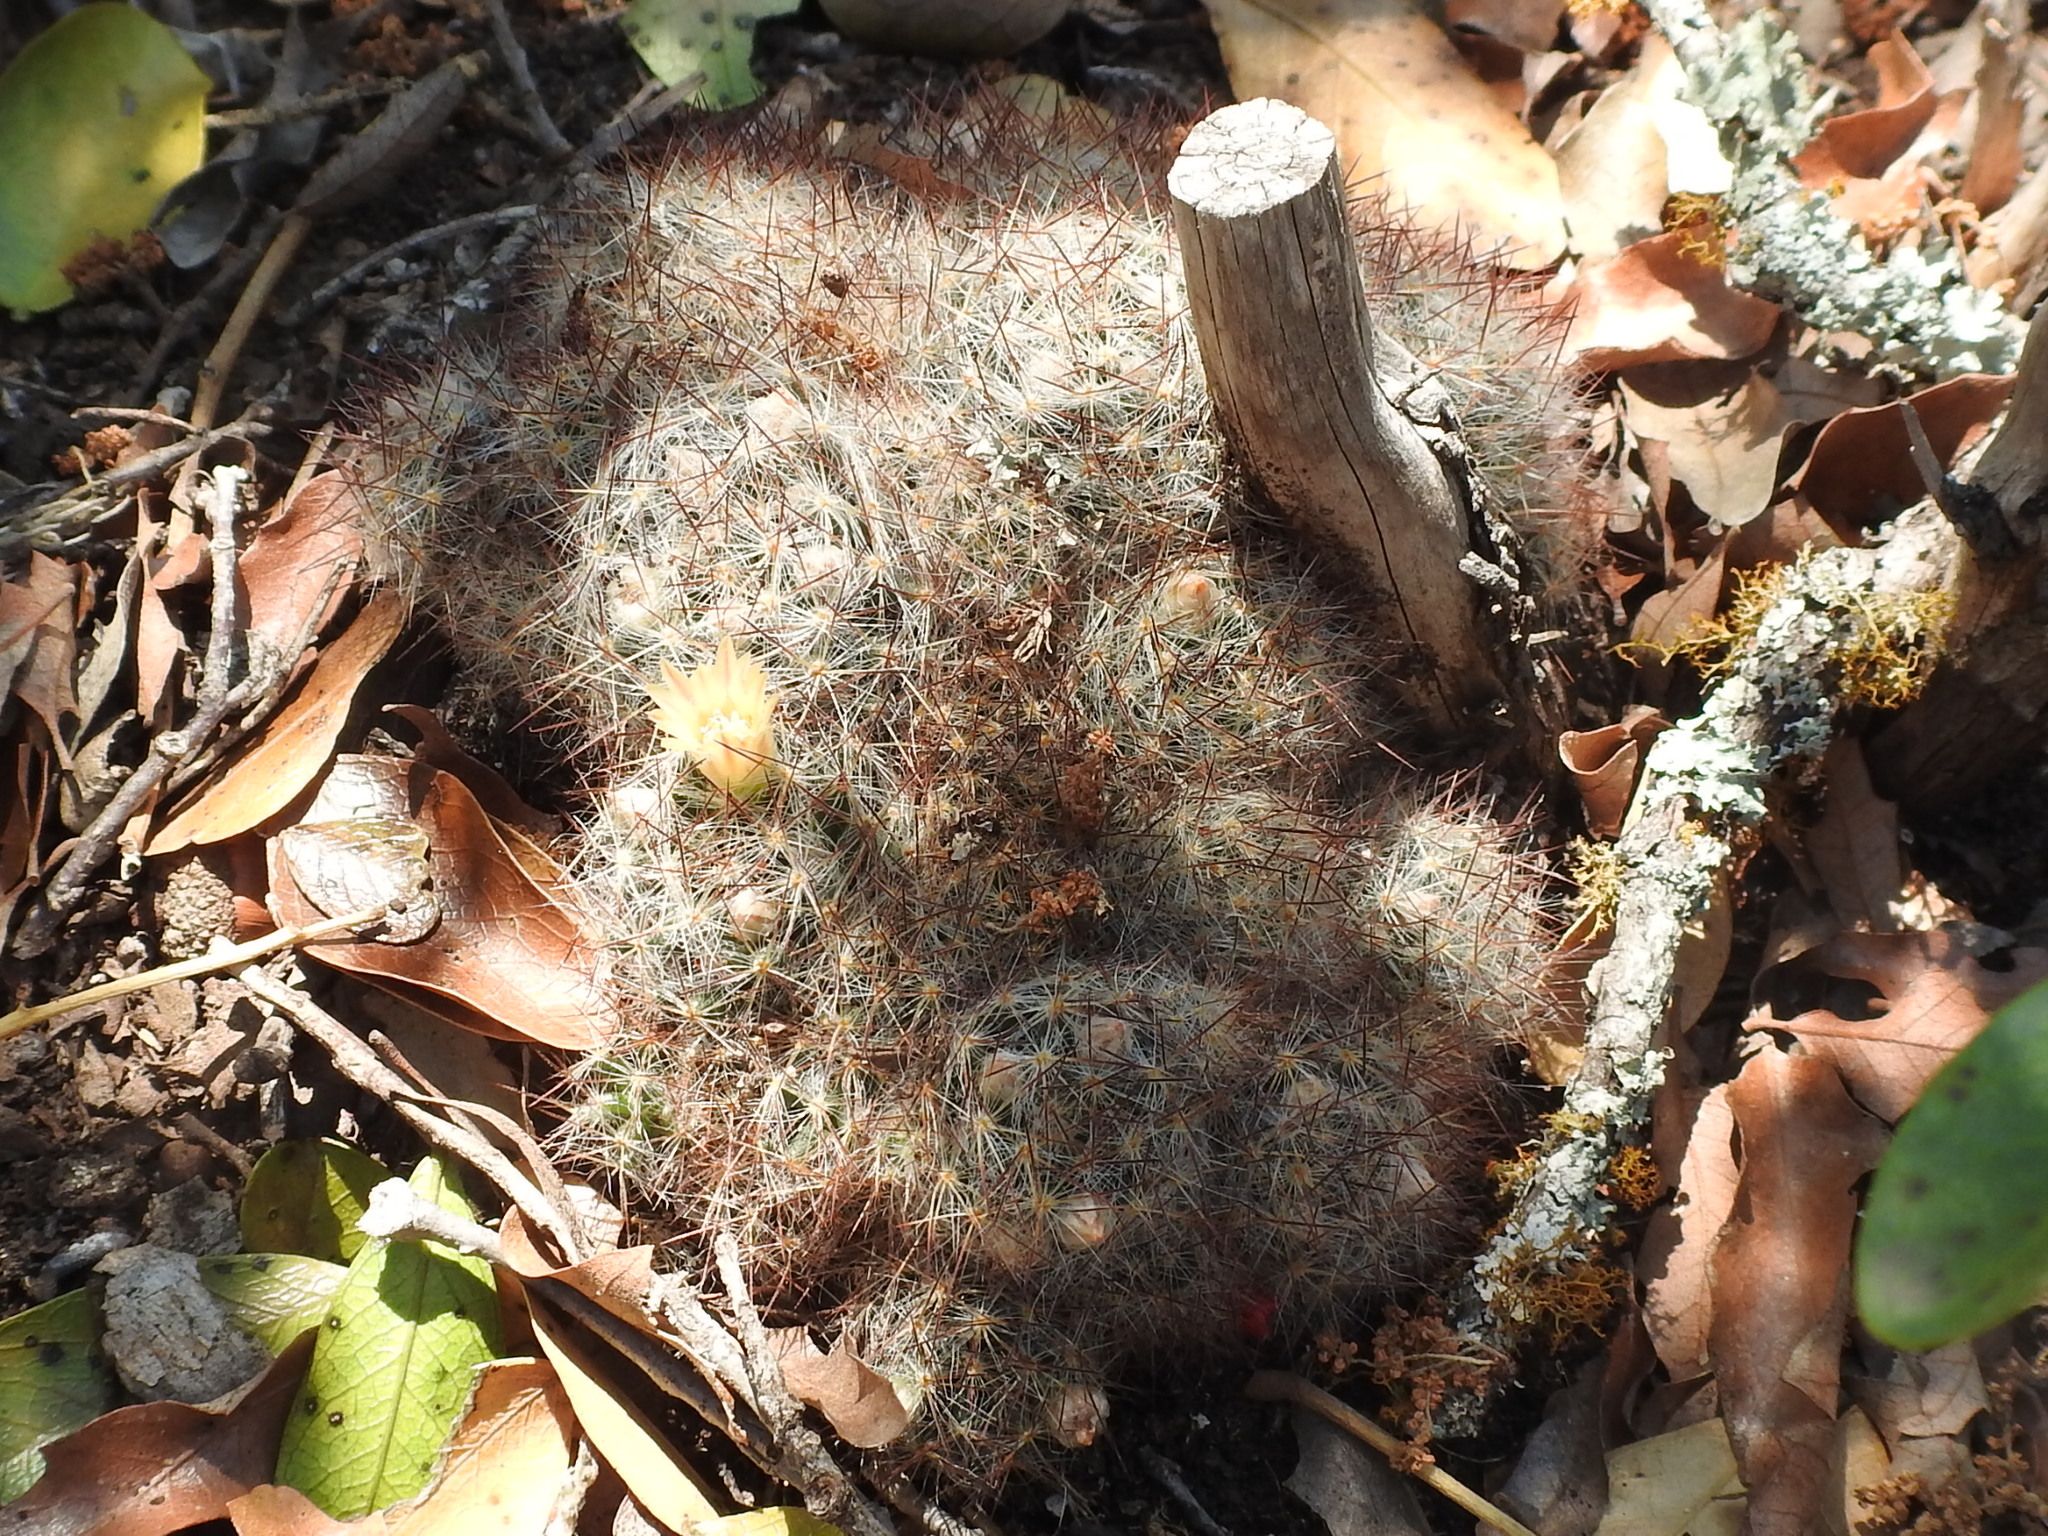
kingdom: Plantae
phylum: Tracheophyta
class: Magnoliopsida
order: Caryophyllales
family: Cactaceae
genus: Mammillaria
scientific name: Mammillaria prolifera
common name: Texas nipple cactus
